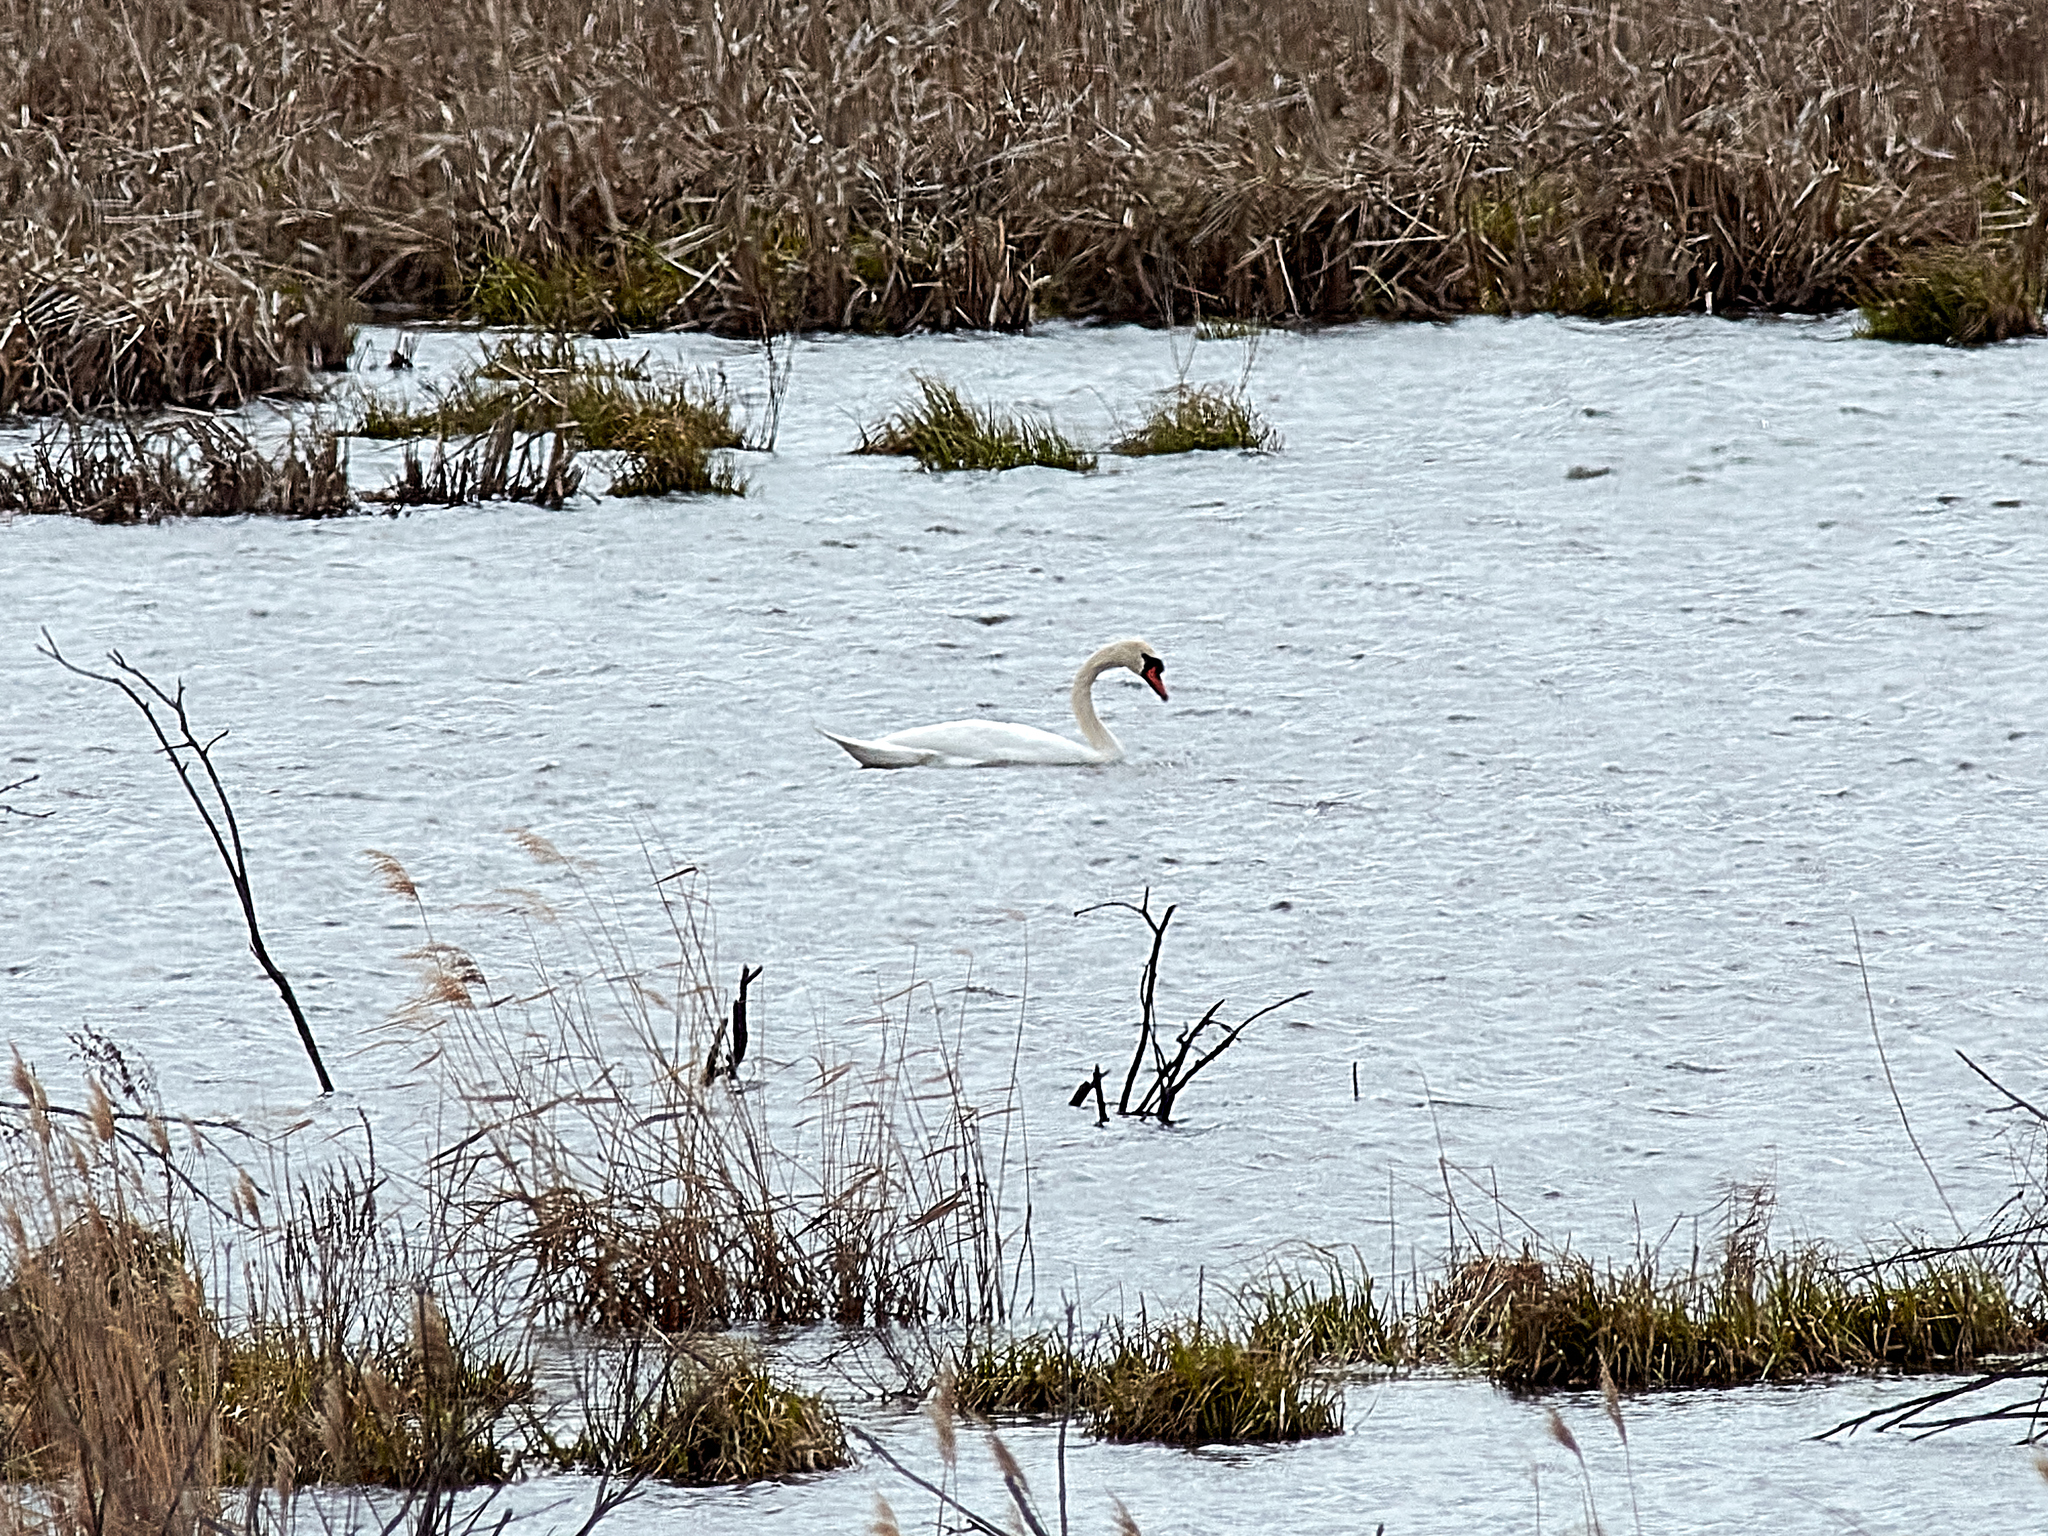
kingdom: Animalia
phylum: Chordata
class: Aves
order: Anseriformes
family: Anatidae
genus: Cygnus
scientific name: Cygnus olor
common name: Mute swan
